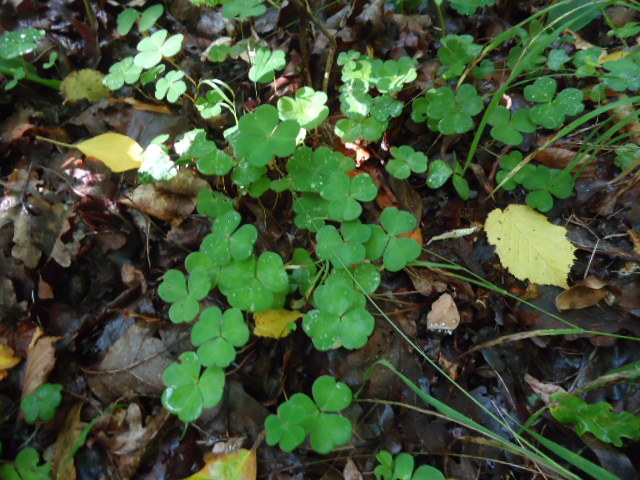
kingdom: Plantae
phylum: Tracheophyta
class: Magnoliopsida
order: Oxalidales
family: Oxalidaceae
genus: Oxalis
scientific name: Oxalis acetosella
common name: Wood-sorrel
